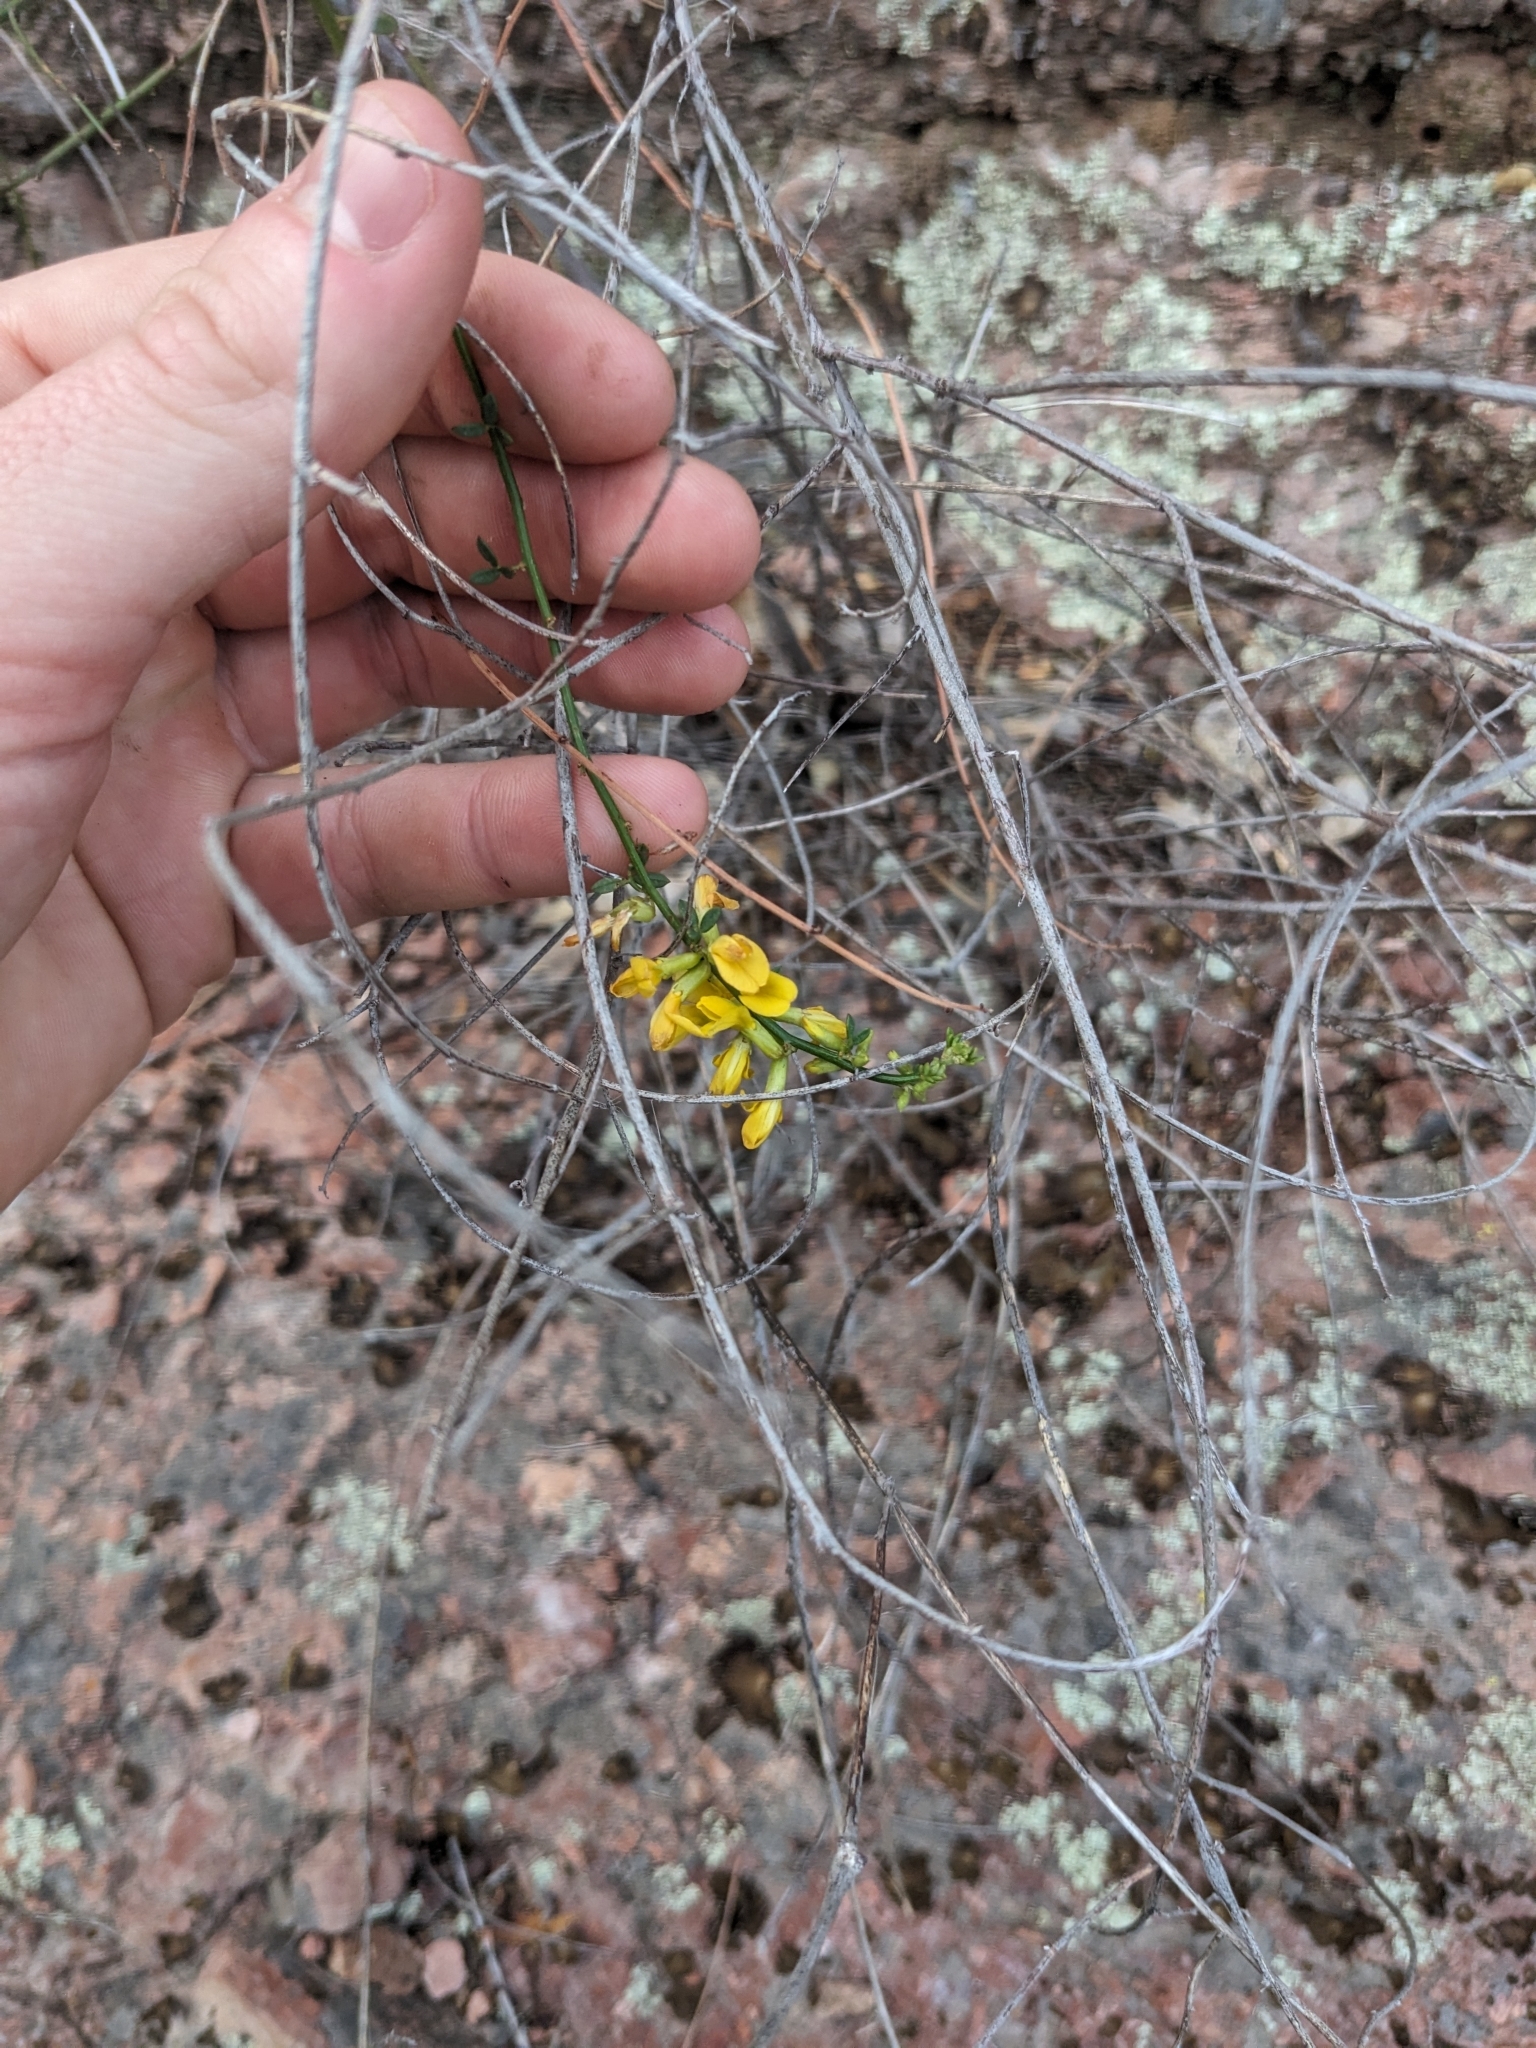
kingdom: Plantae
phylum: Tracheophyta
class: Magnoliopsida
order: Fabales
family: Fabaceae
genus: Acmispon
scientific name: Acmispon glaber
